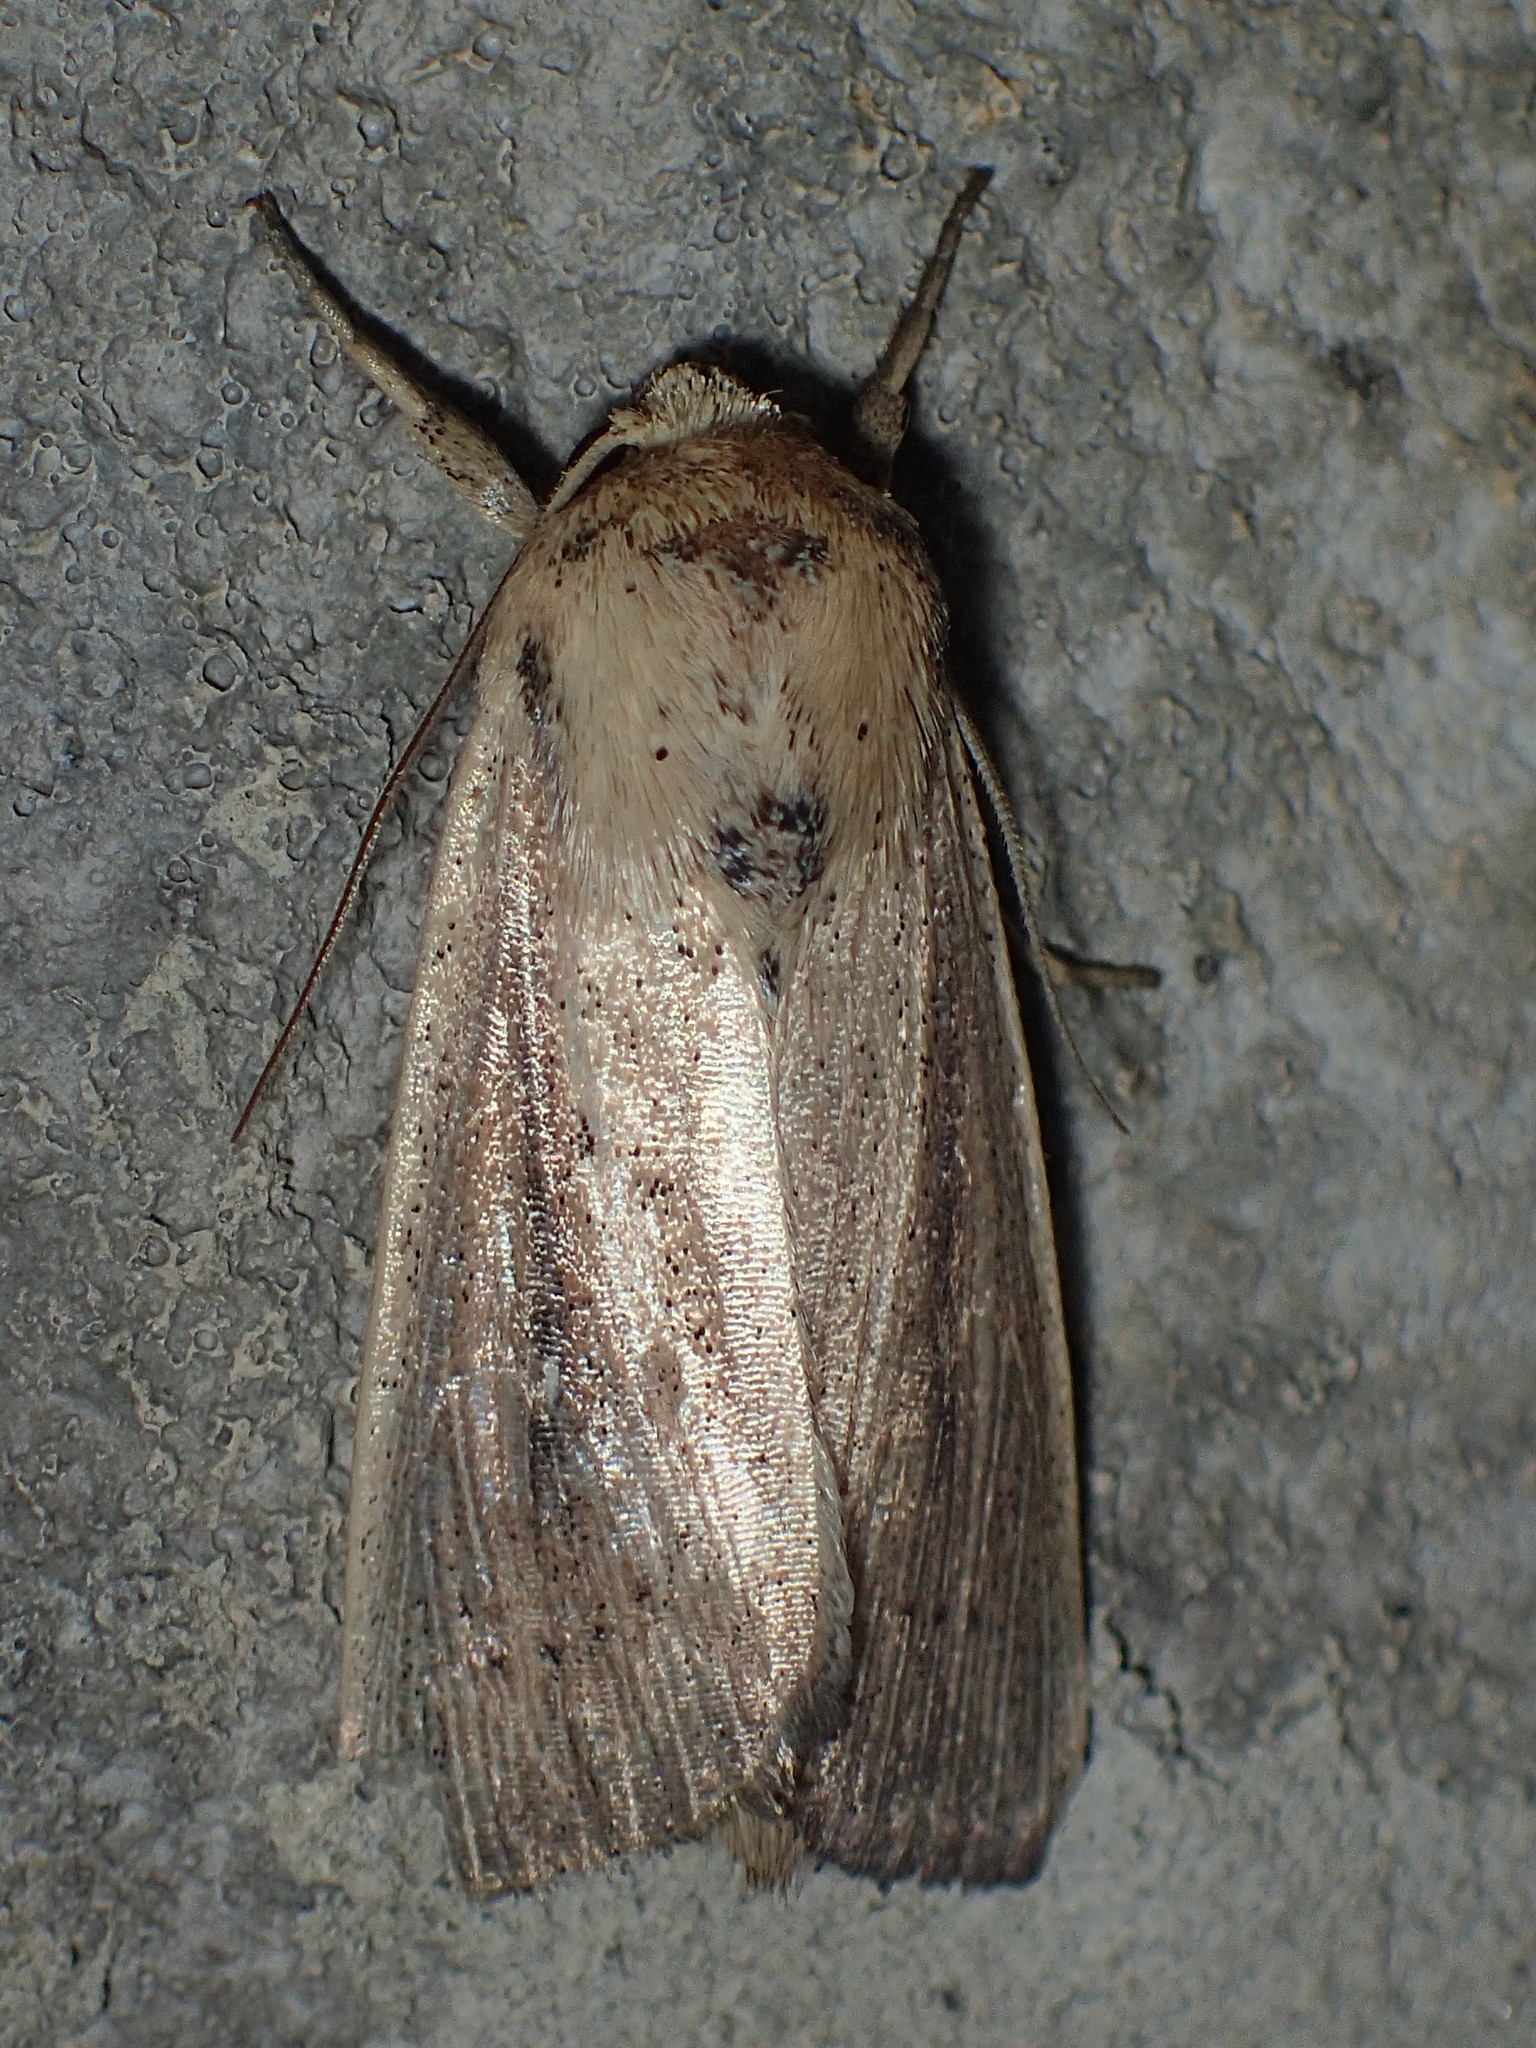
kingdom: Animalia
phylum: Arthropoda
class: Insecta
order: Lepidoptera
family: Noctuidae
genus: Leucania
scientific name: Leucania
